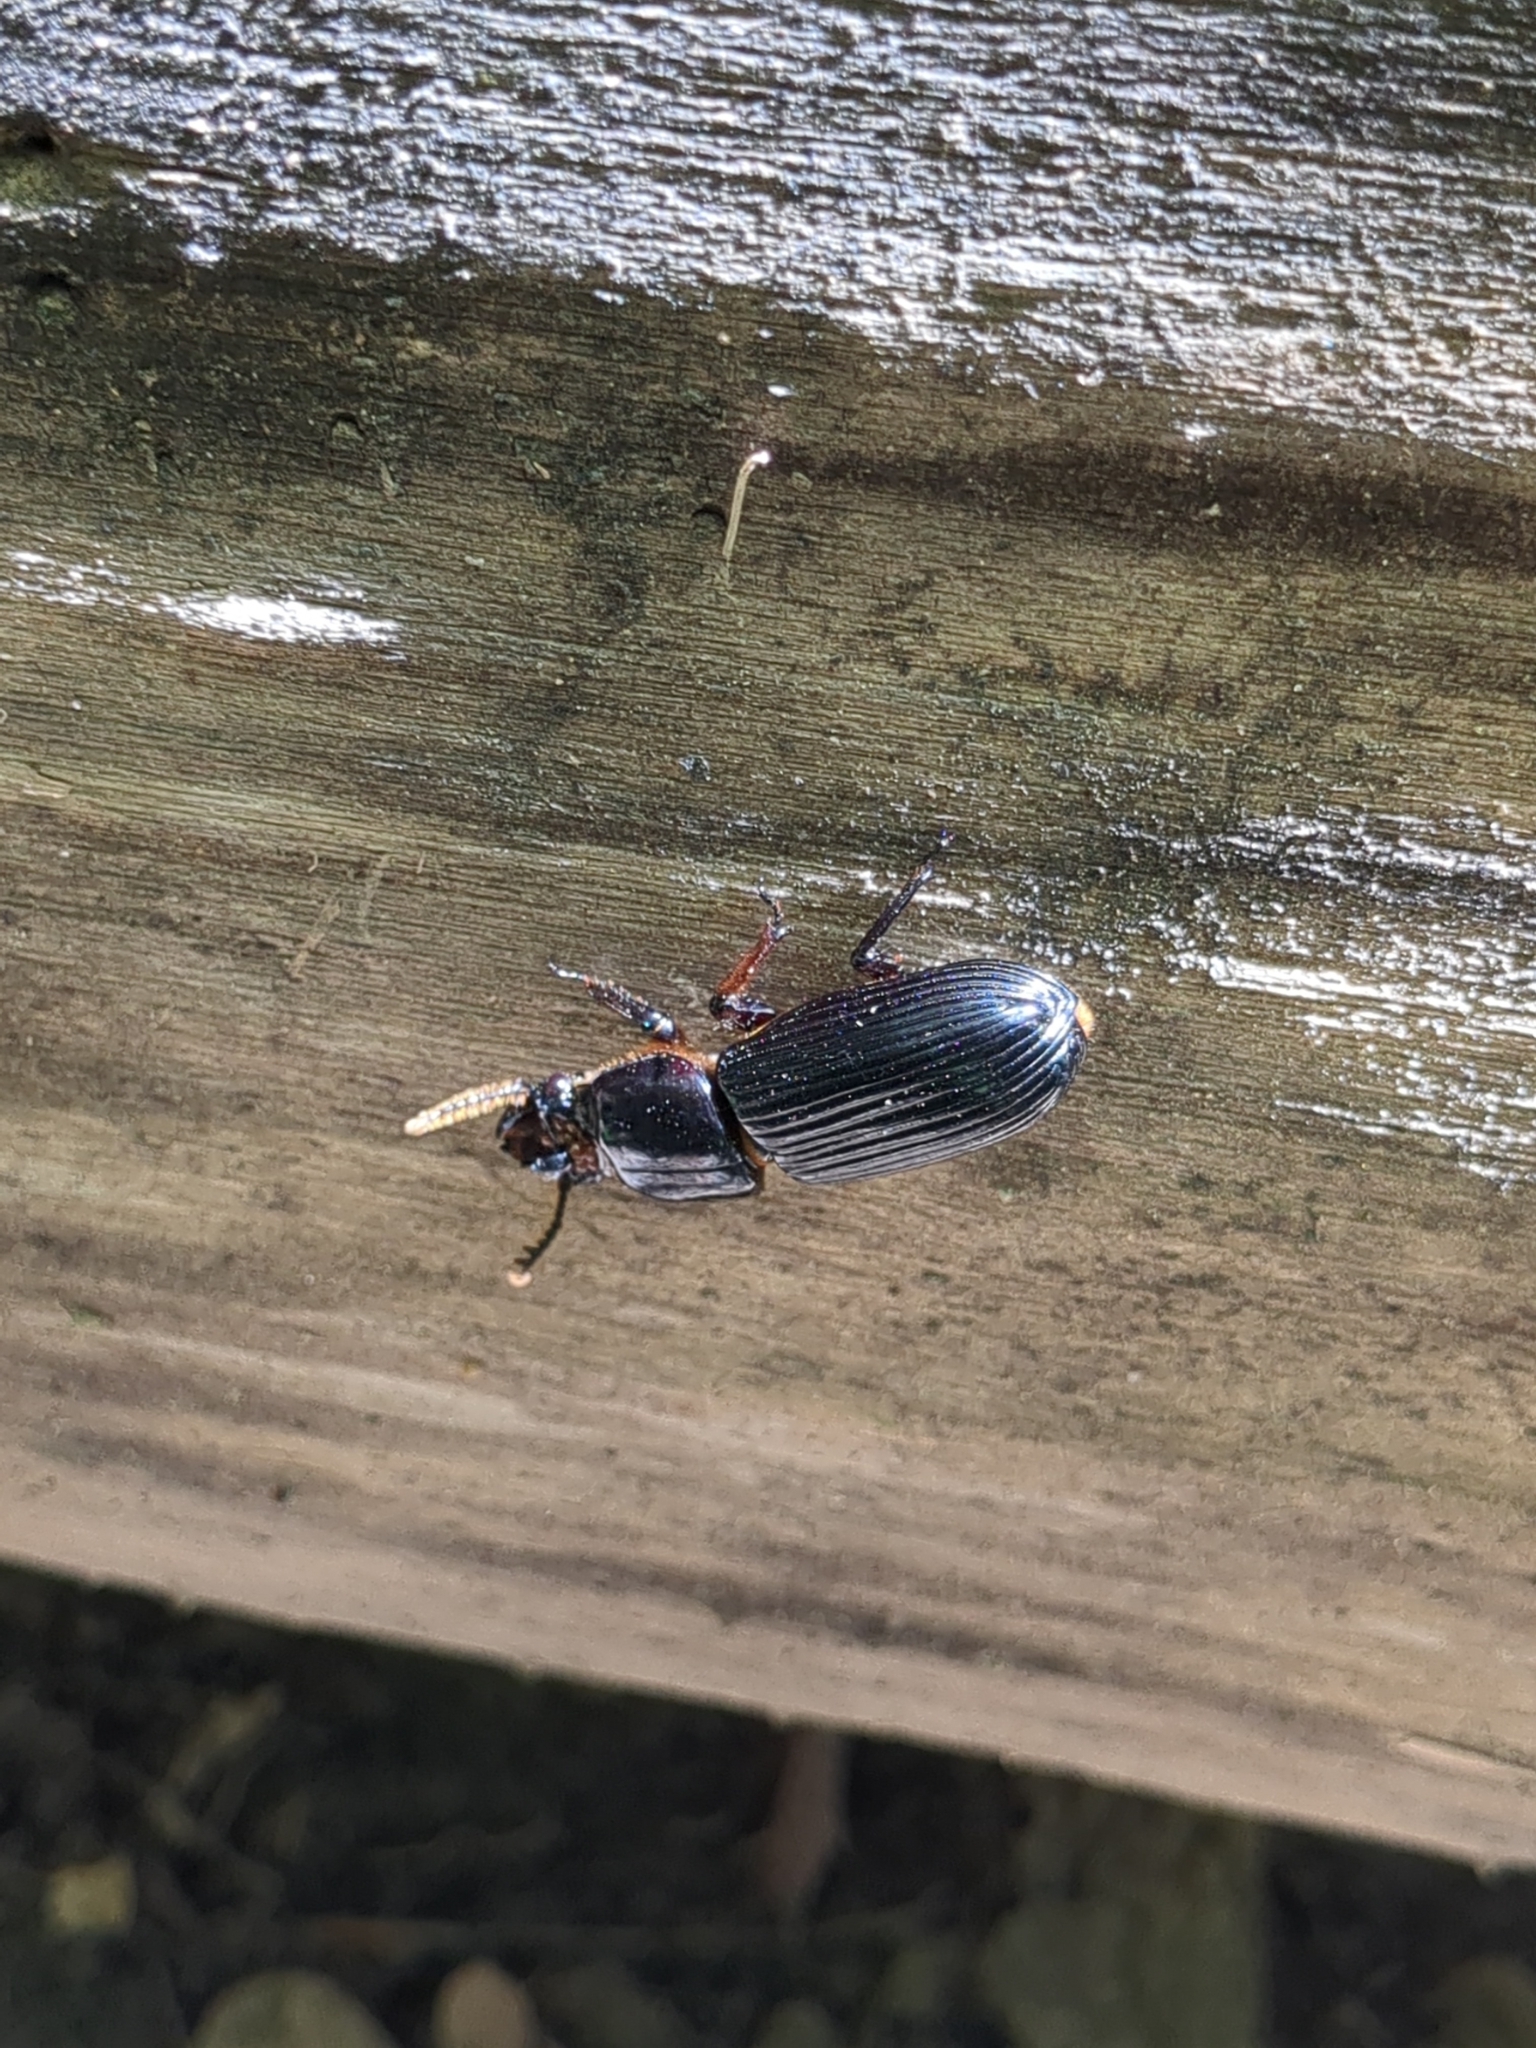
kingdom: Animalia
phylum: Arthropoda
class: Insecta
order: Coleoptera
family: Passalidae
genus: Odontotaenius
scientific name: Odontotaenius disjunctus
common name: Patent leather beetle
